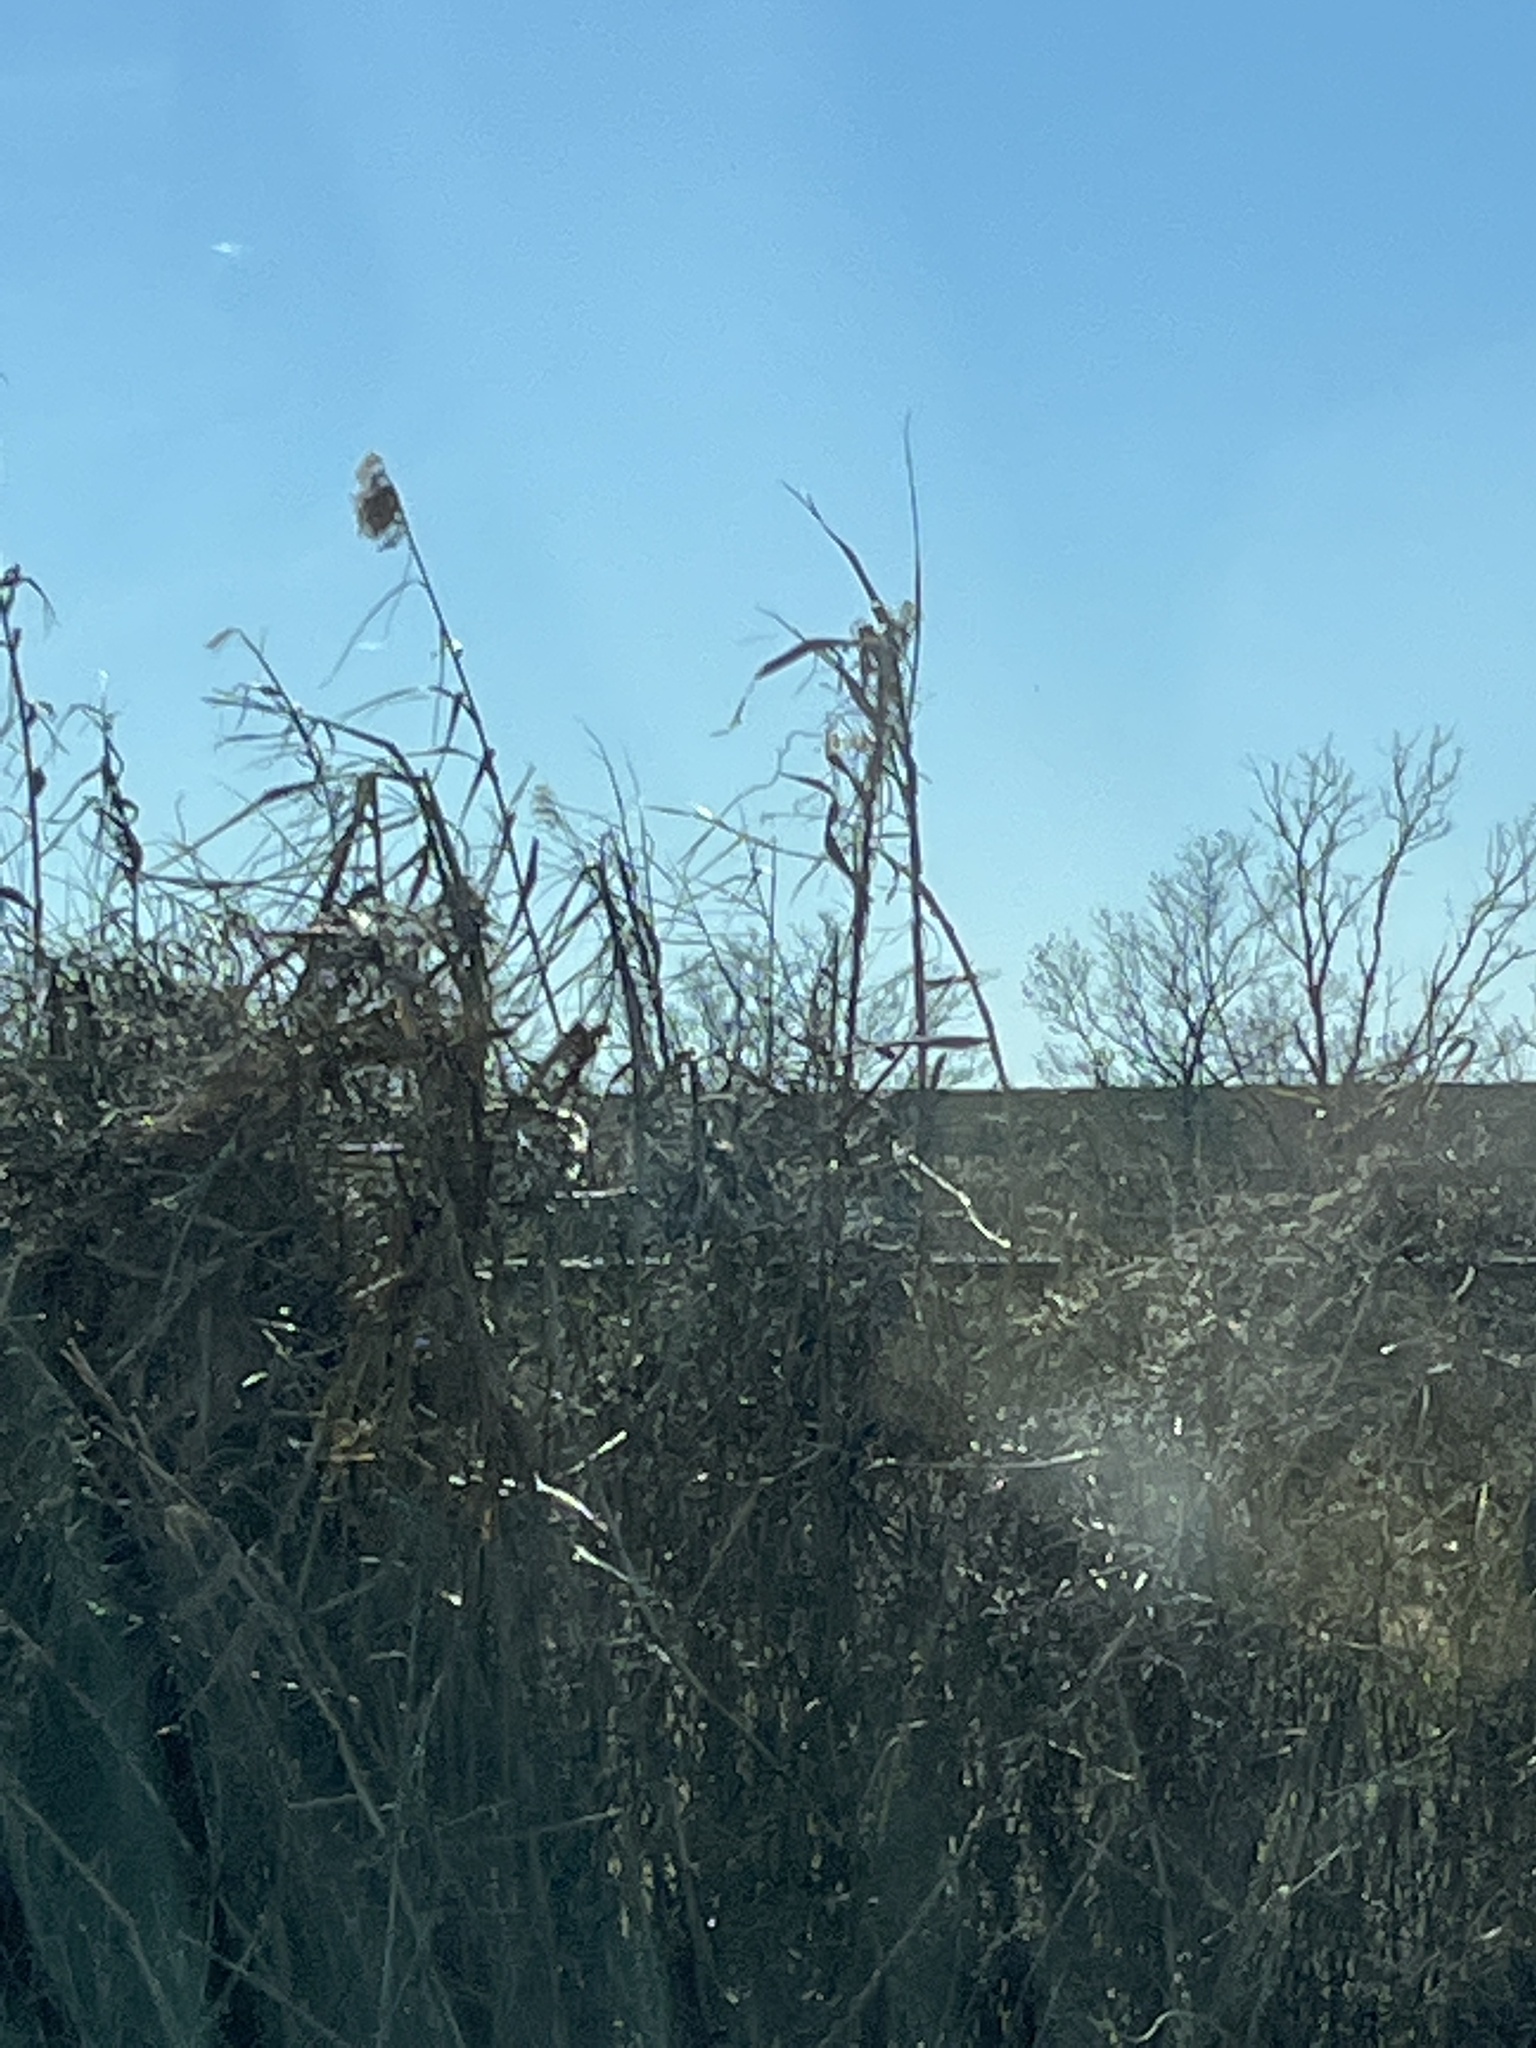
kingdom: Plantae
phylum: Tracheophyta
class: Liliopsida
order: Poales
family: Poaceae
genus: Phragmites
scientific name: Phragmites australis
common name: Common reed
